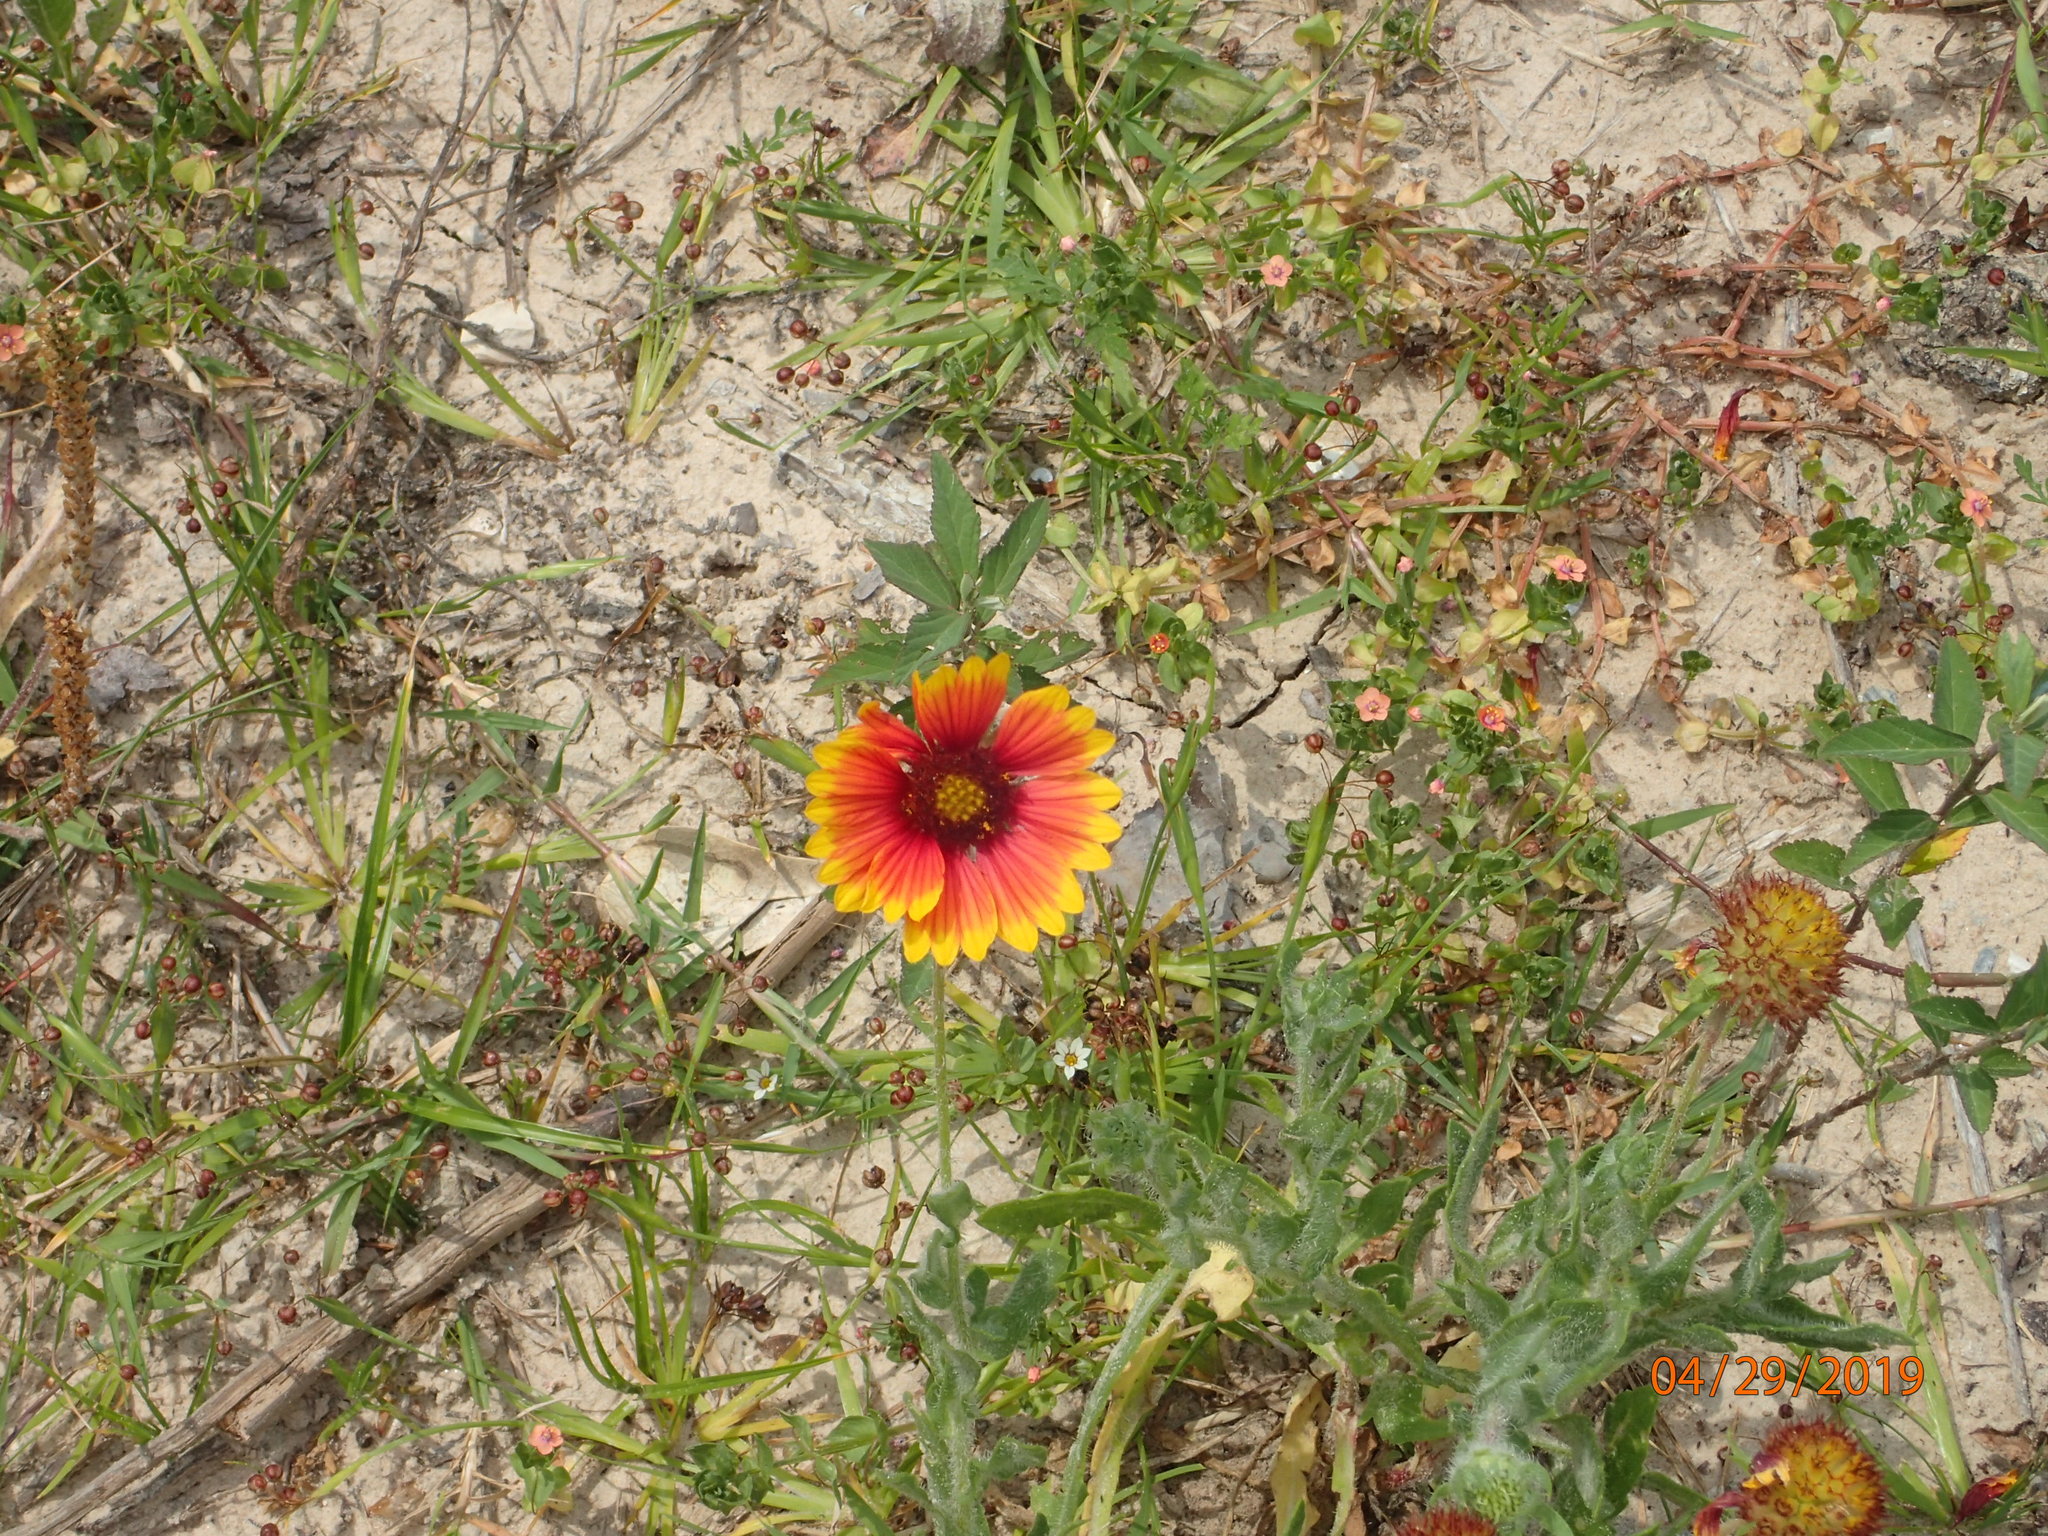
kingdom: Plantae
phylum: Tracheophyta
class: Magnoliopsida
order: Asterales
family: Asteraceae
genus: Gaillardia
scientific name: Gaillardia pulchella
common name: Firewheel
